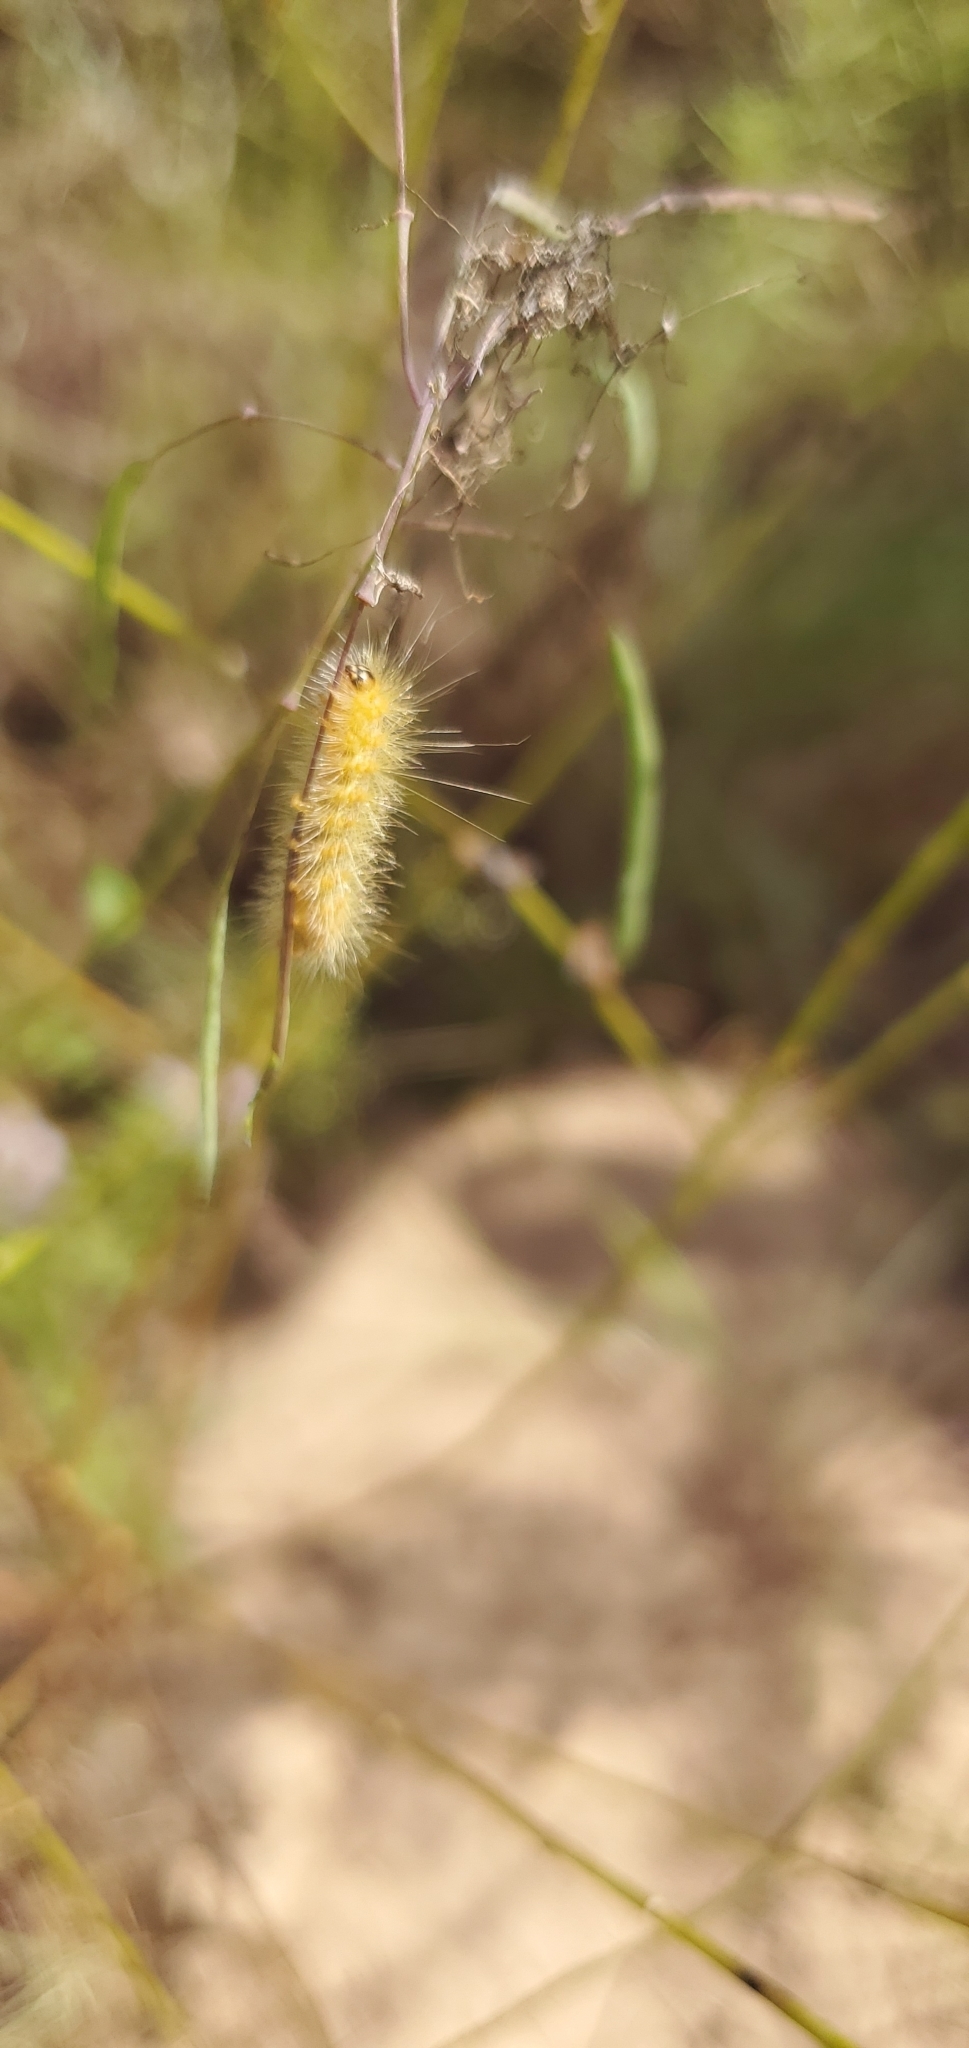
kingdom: Animalia
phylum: Arthropoda
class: Insecta
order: Lepidoptera
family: Erebidae
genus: Estigmene
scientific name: Estigmene acrea
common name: Salt marsh moth
